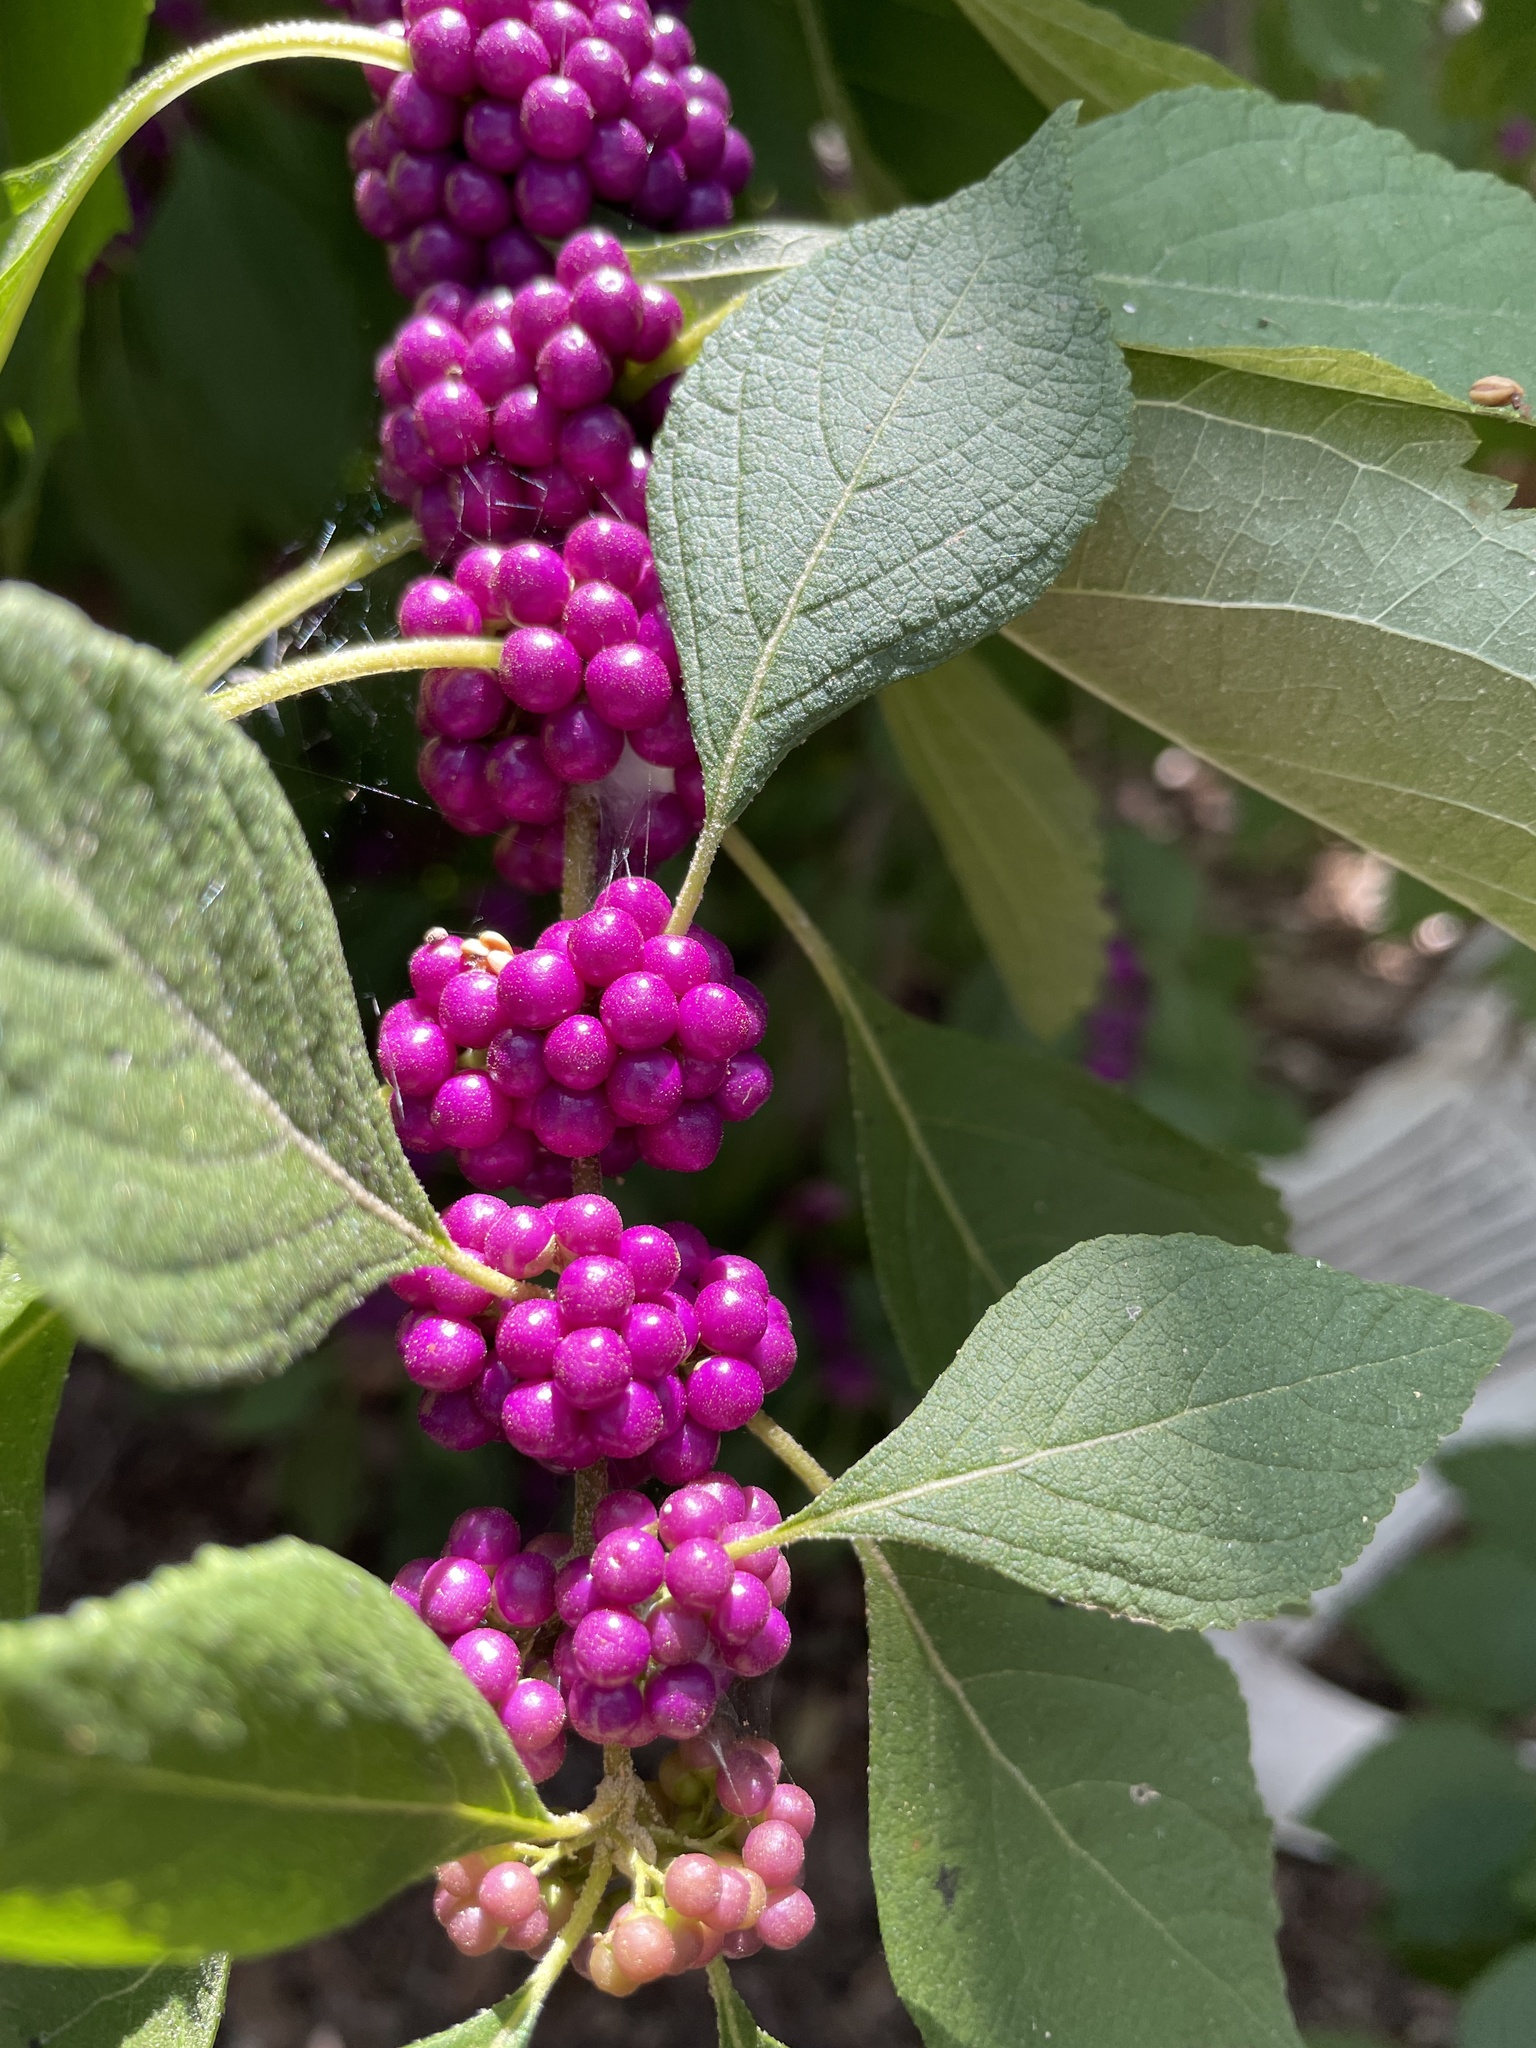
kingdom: Plantae
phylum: Tracheophyta
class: Magnoliopsida
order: Lamiales
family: Lamiaceae
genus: Callicarpa
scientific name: Callicarpa americana
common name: American beautyberry
